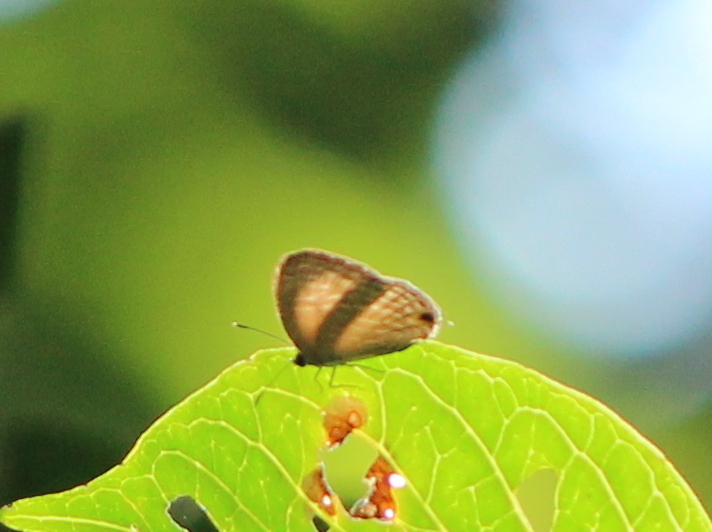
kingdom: Animalia
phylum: Arthropoda
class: Insecta
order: Lepidoptera
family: Lycaenidae
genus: Jamides
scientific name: Jamides celeno
